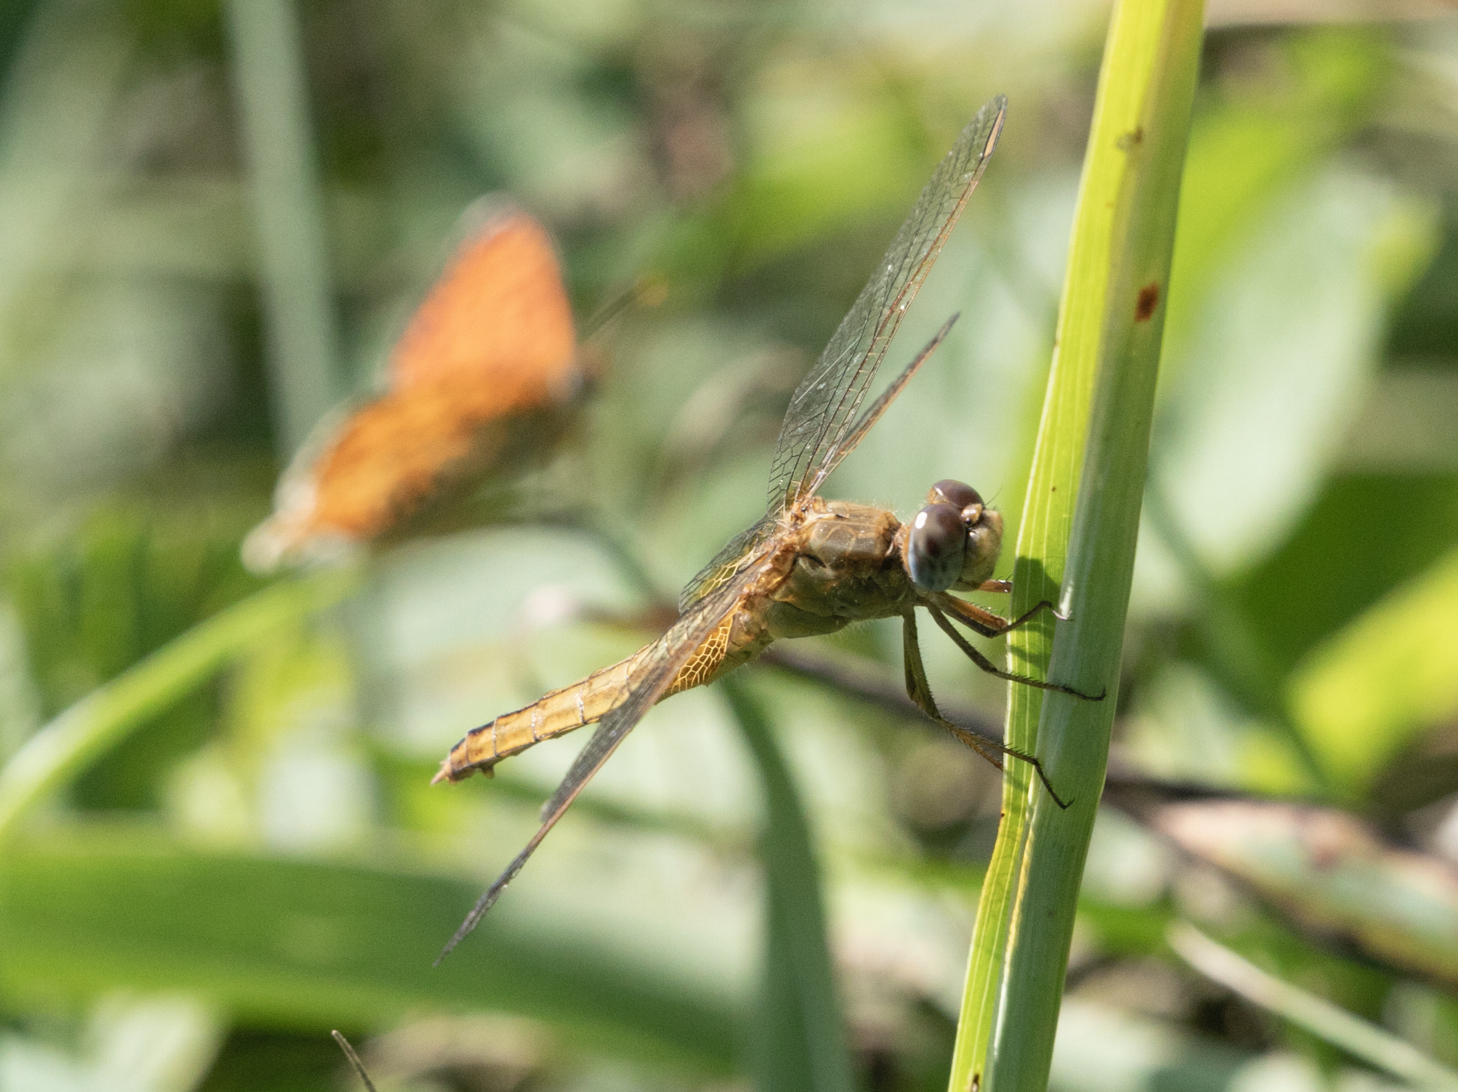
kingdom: Animalia
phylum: Arthropoda
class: Insecta
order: Odonata
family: Libellulidae
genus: Crocothemis
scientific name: Crocothemis erythraea
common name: Scarlet dragonfly
